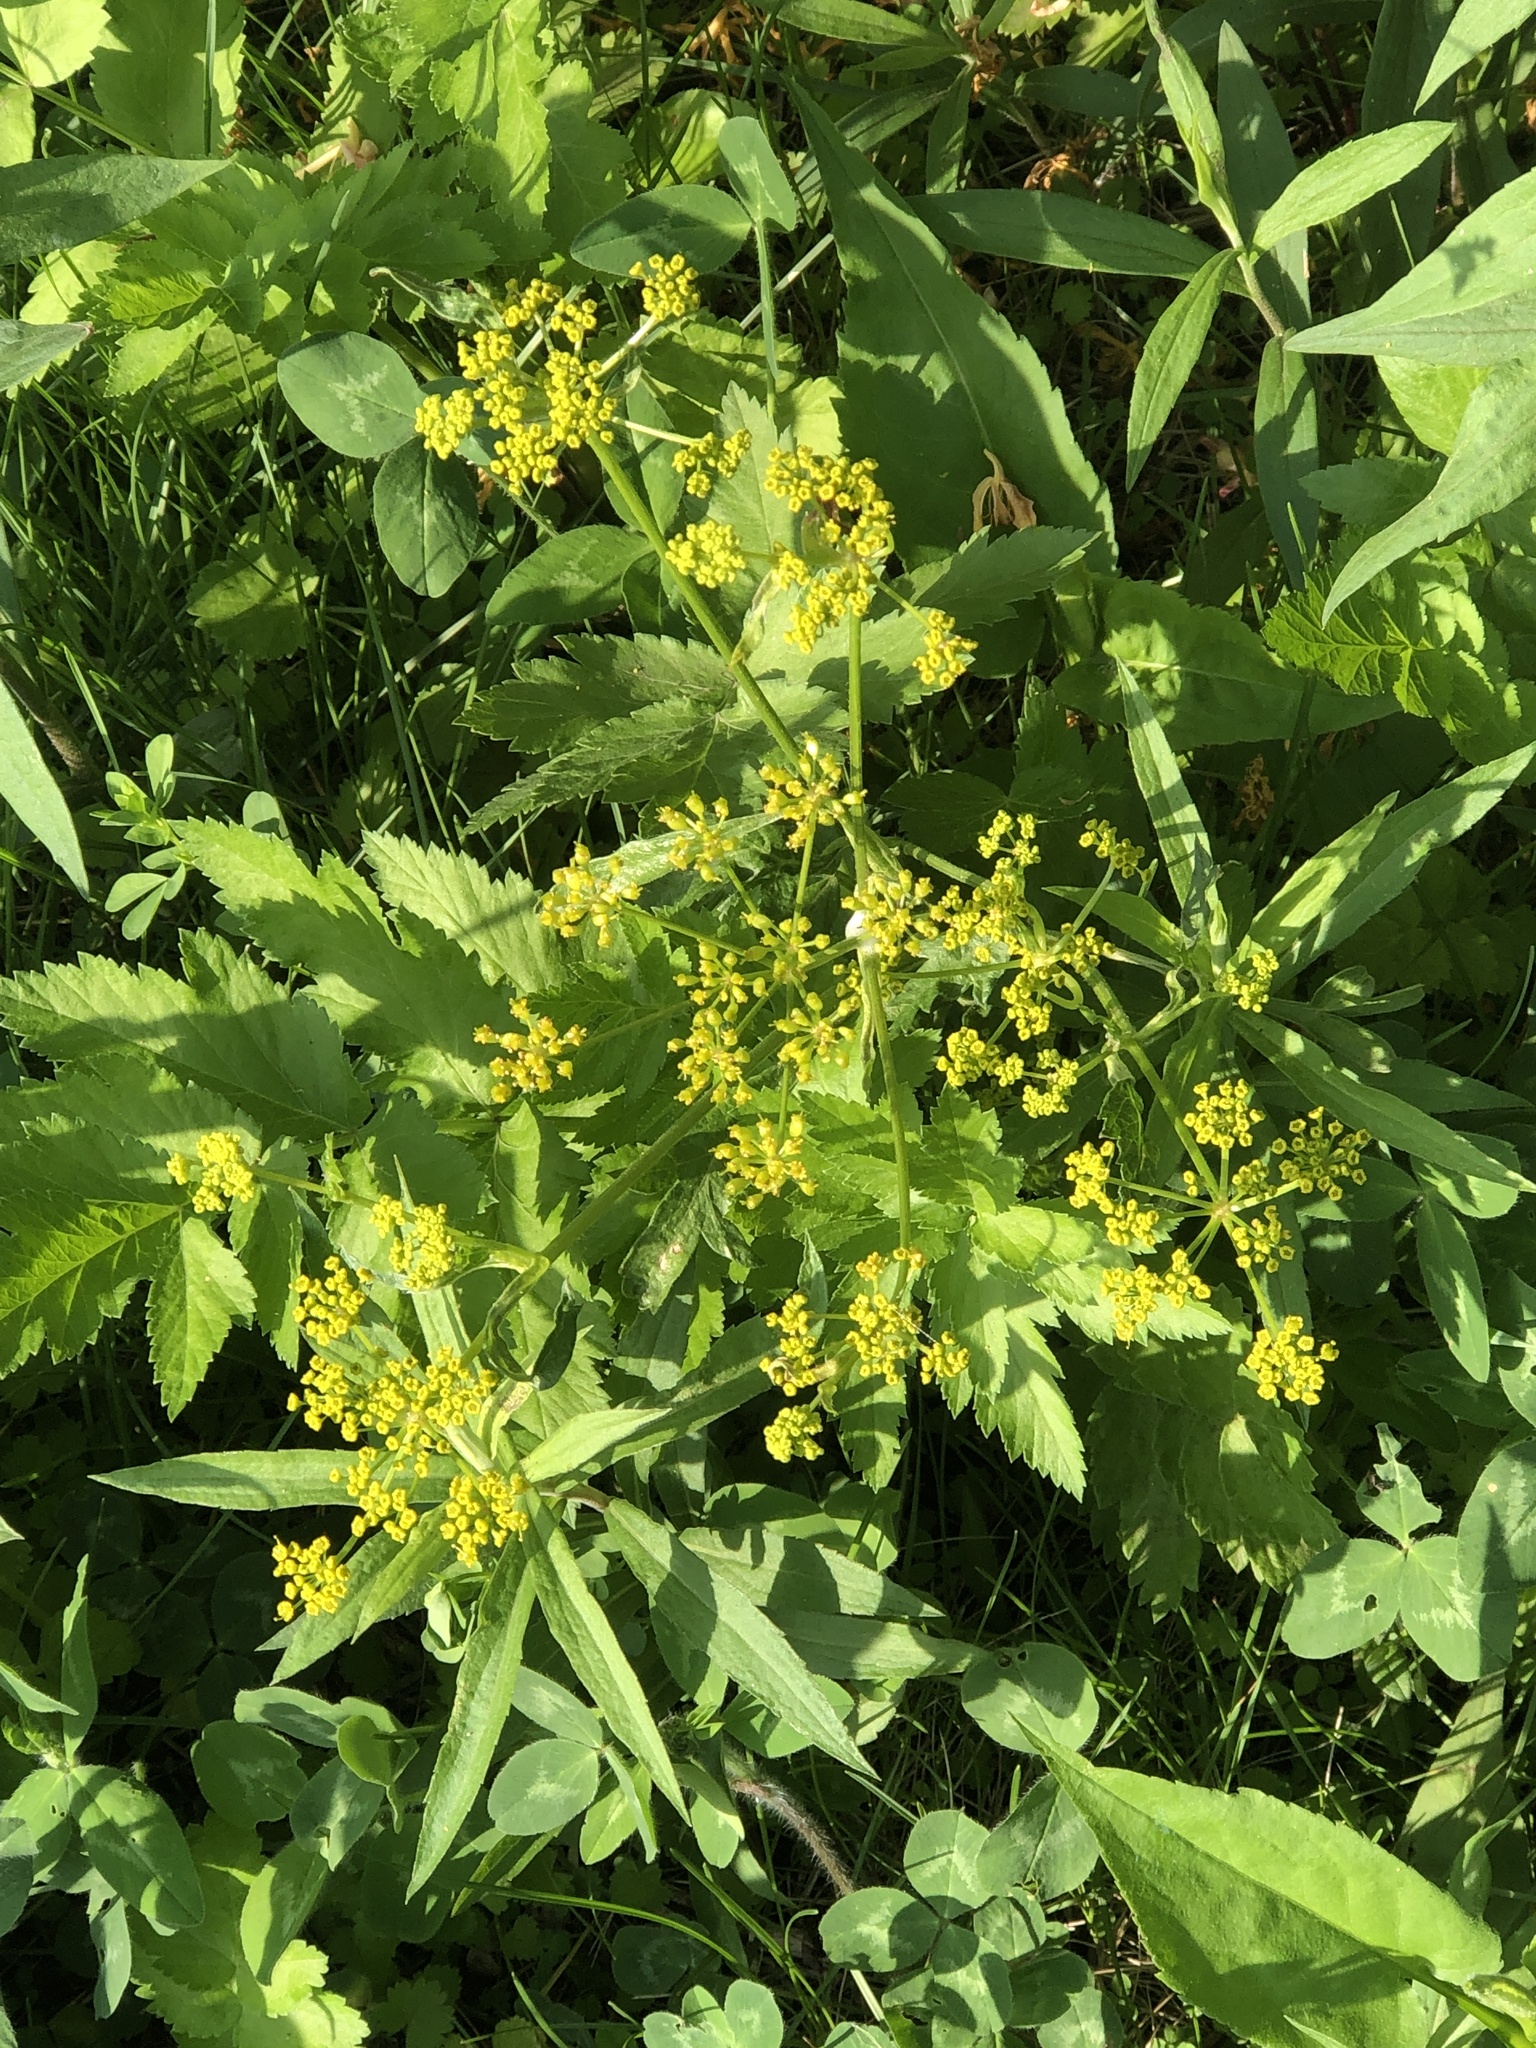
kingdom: Plantae
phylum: Tracheophyta
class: Magnoliopsida
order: Apiales
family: Apiaceae
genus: Pastinaca
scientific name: Pastinaca sativa
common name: Wild parsnip
